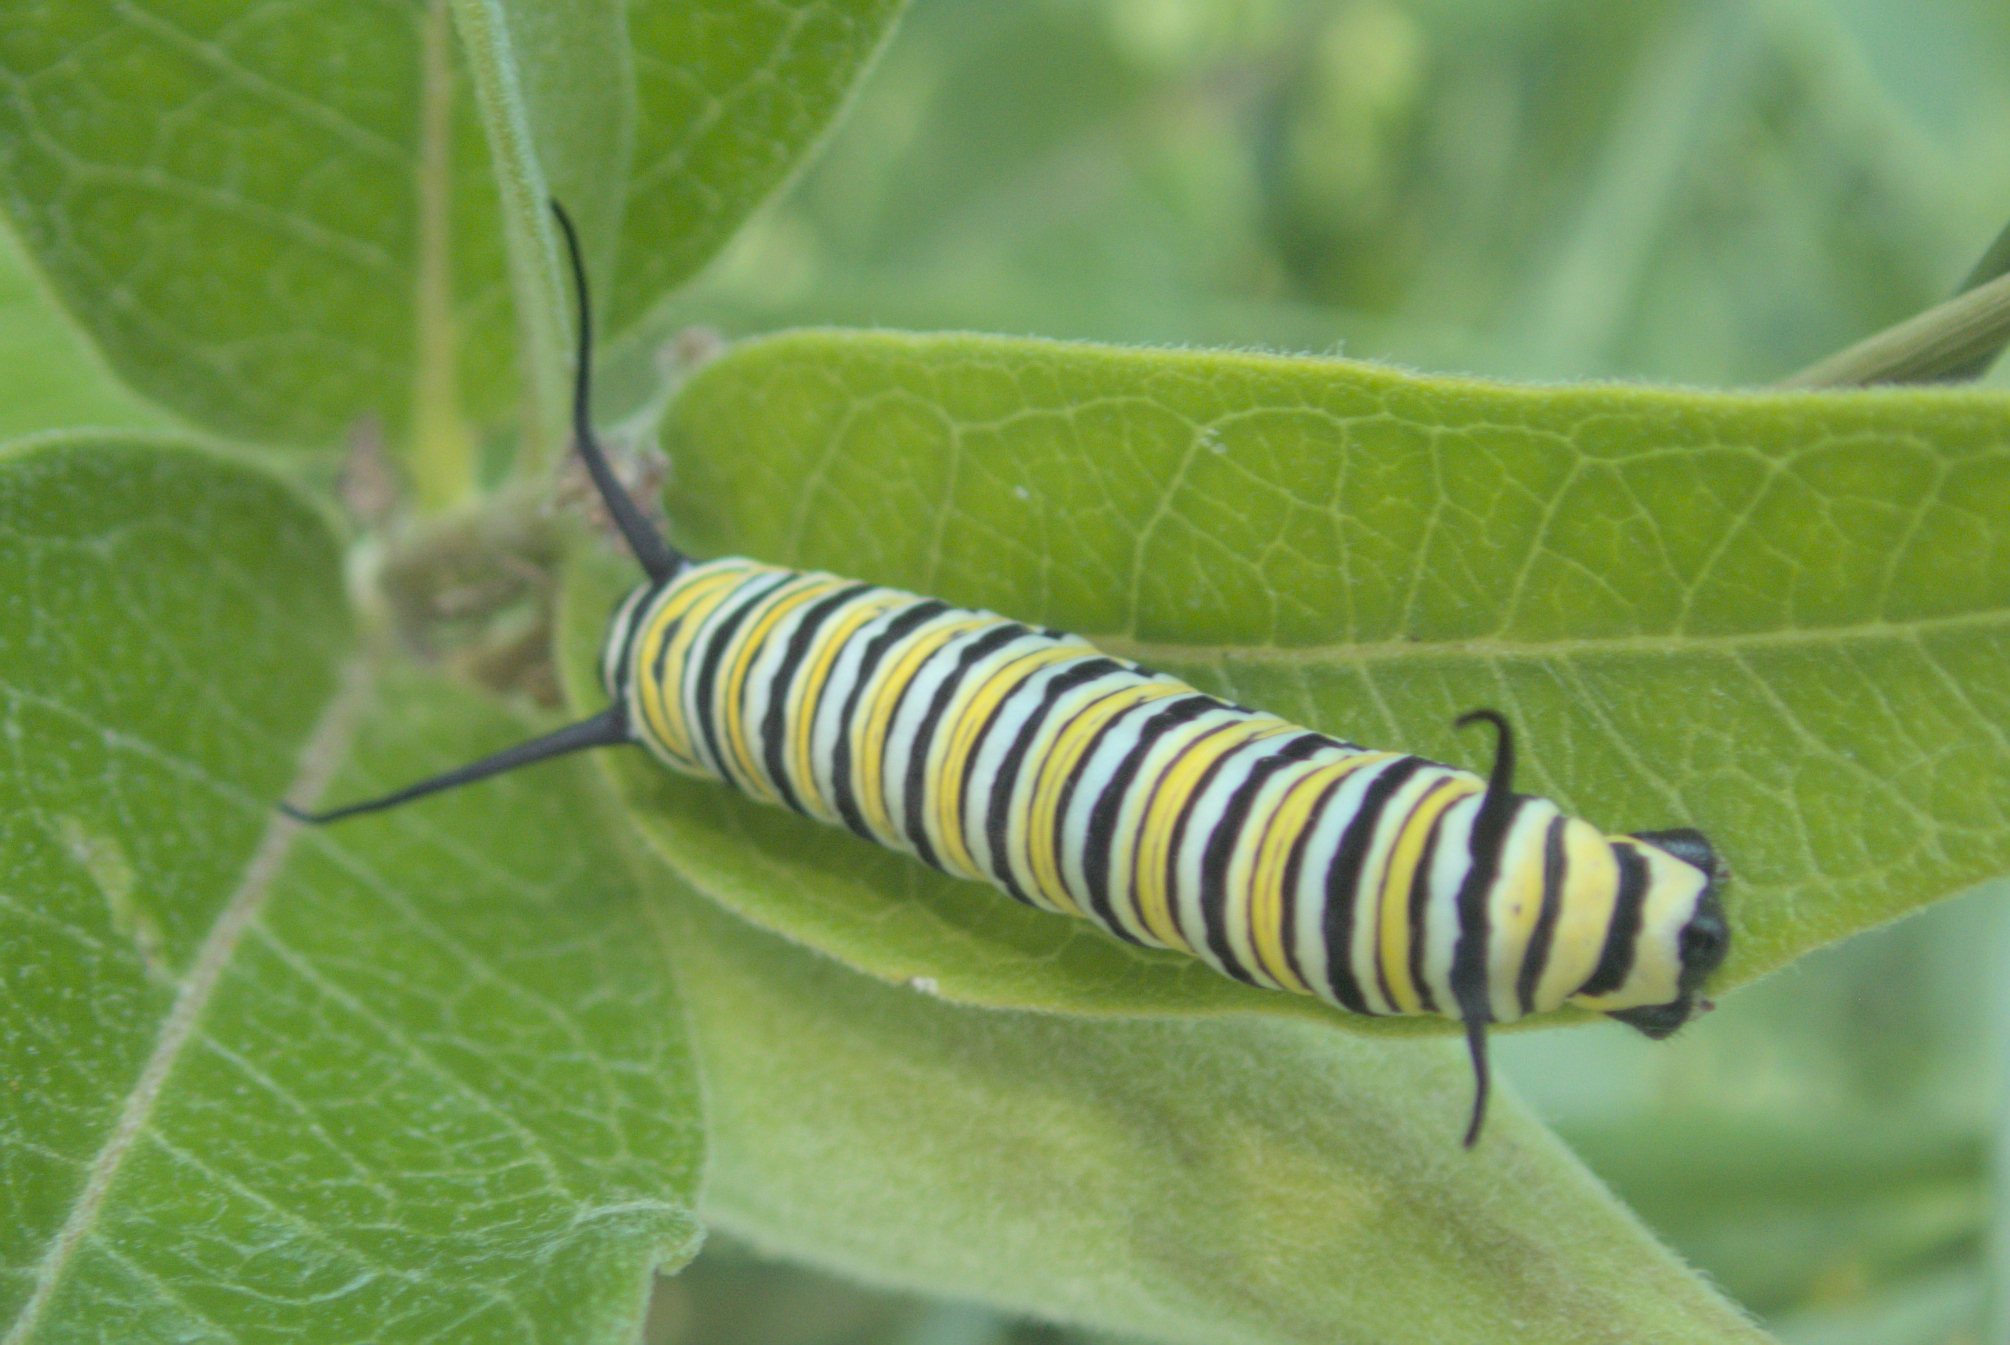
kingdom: Animalia
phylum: Arthropoda
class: Insecta
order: Lepidoptera
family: Nymphalidae
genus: Danaus
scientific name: Danaus plexippus
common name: Monarch
